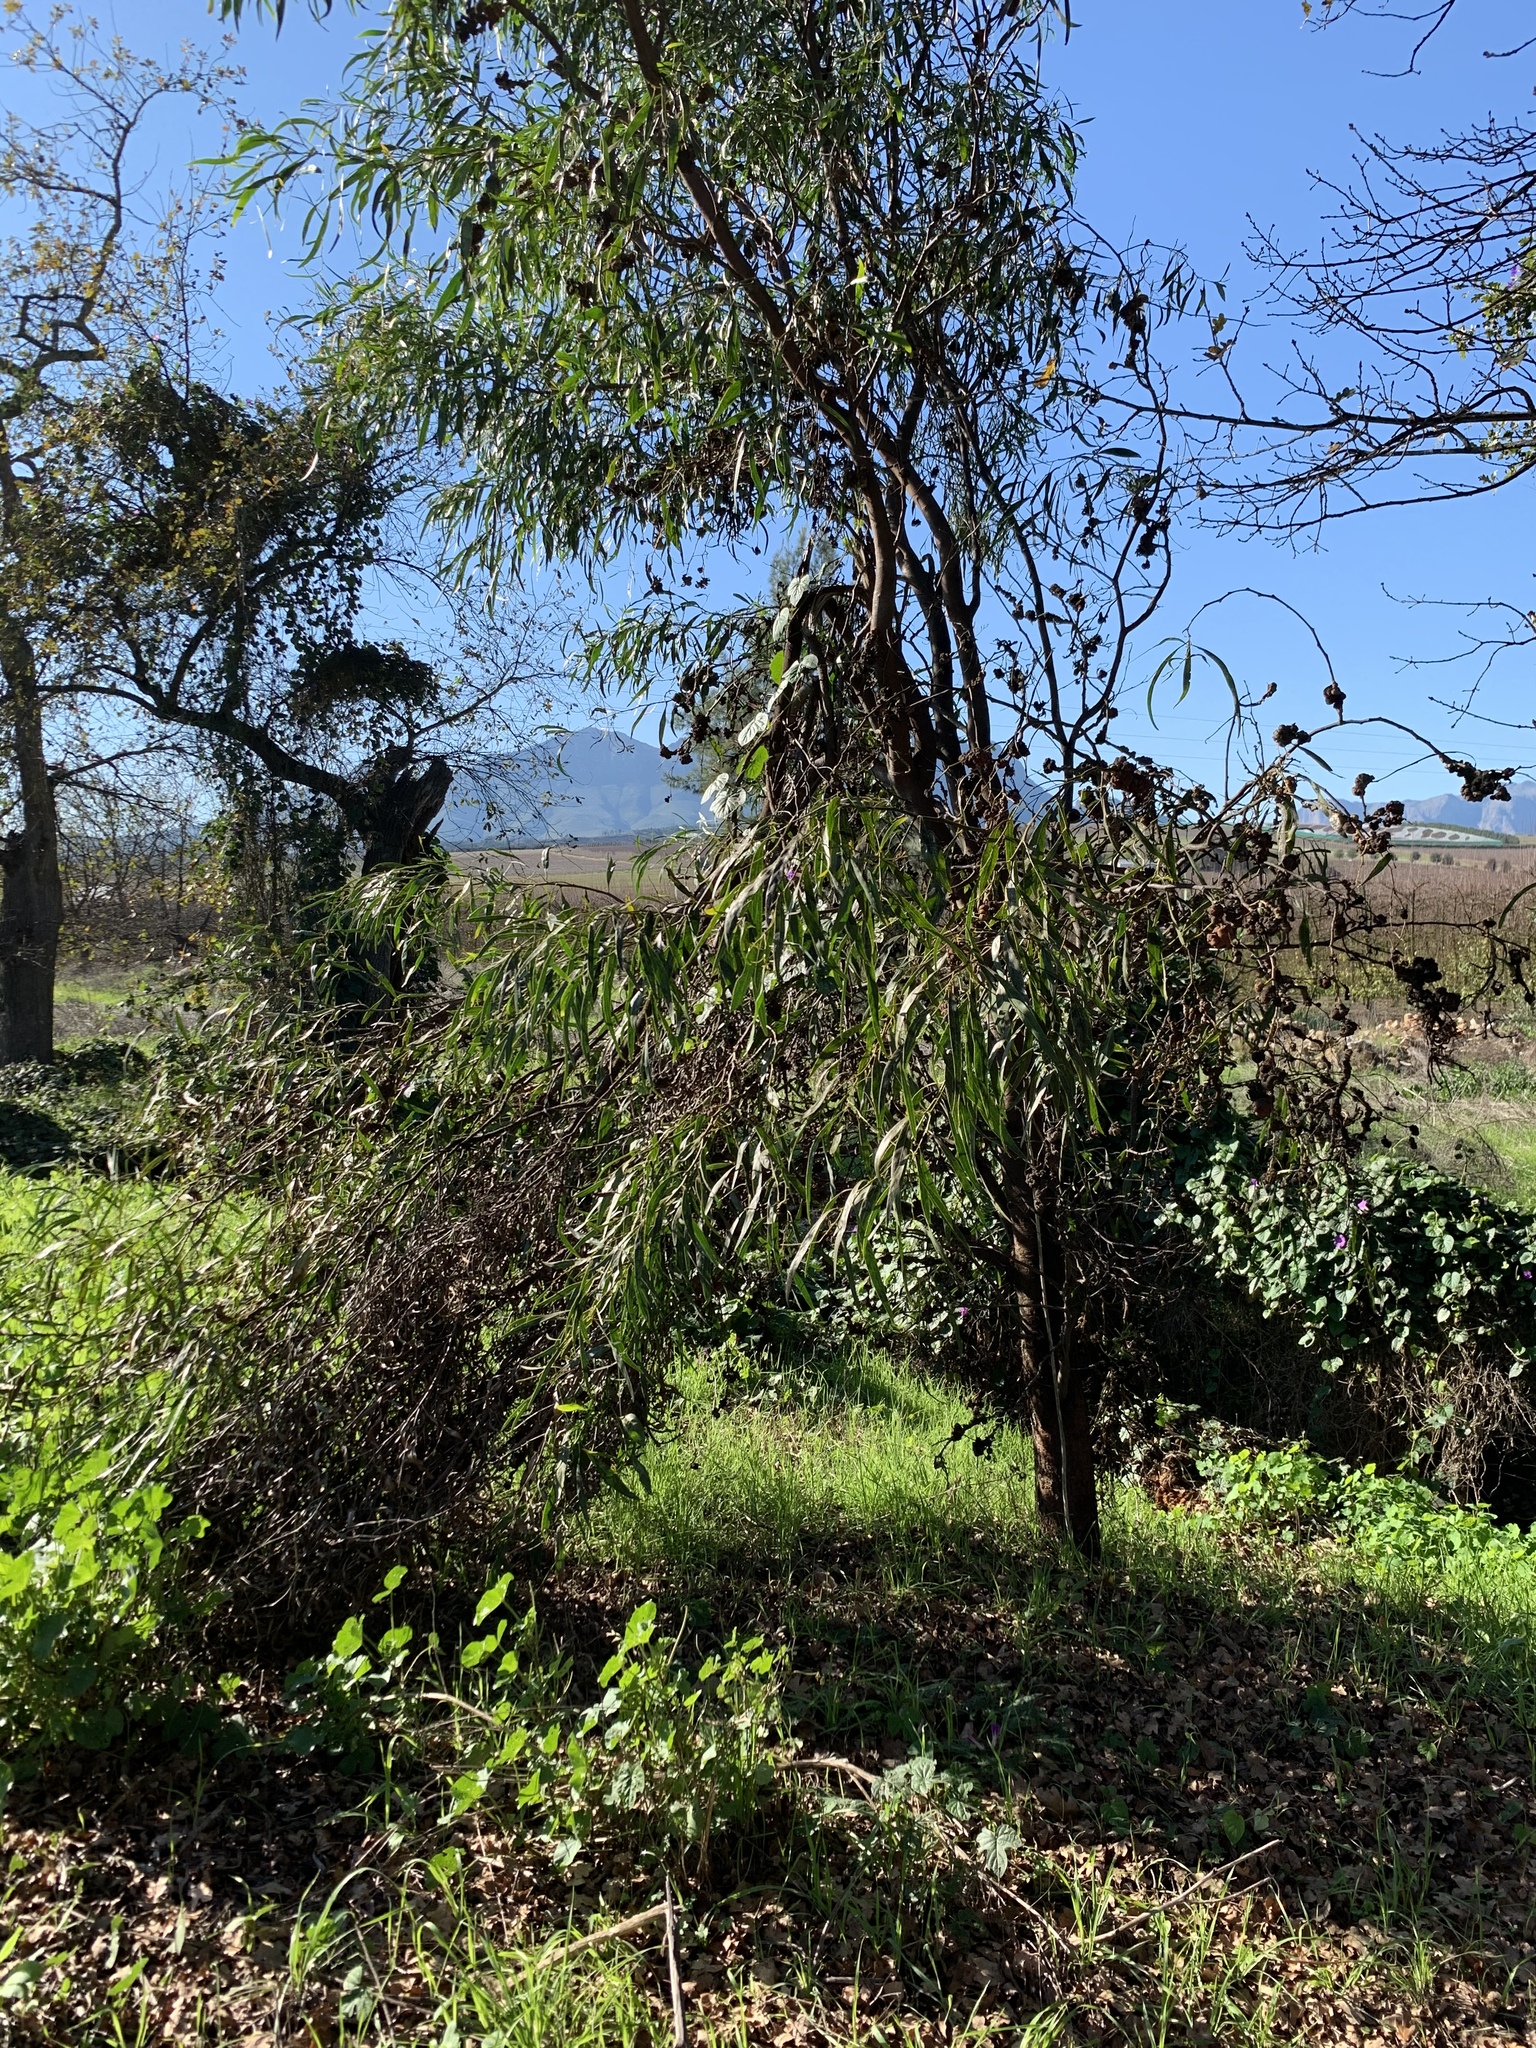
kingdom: Plantae
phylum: Tracheophyta
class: Magnoliopsida
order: Fabales
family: Fabaceae
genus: Acacia
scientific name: Acacia saligna
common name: Orange wattle
